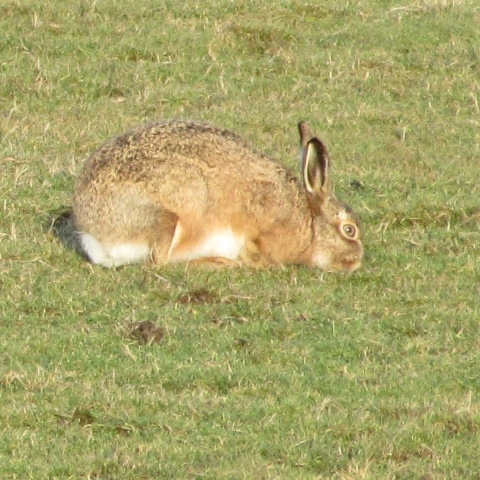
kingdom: Animalia
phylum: Chordata
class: Mammalia
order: Lagomorpha
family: Leporidae
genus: Lepus
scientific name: Lepus europaeus
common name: European hare
